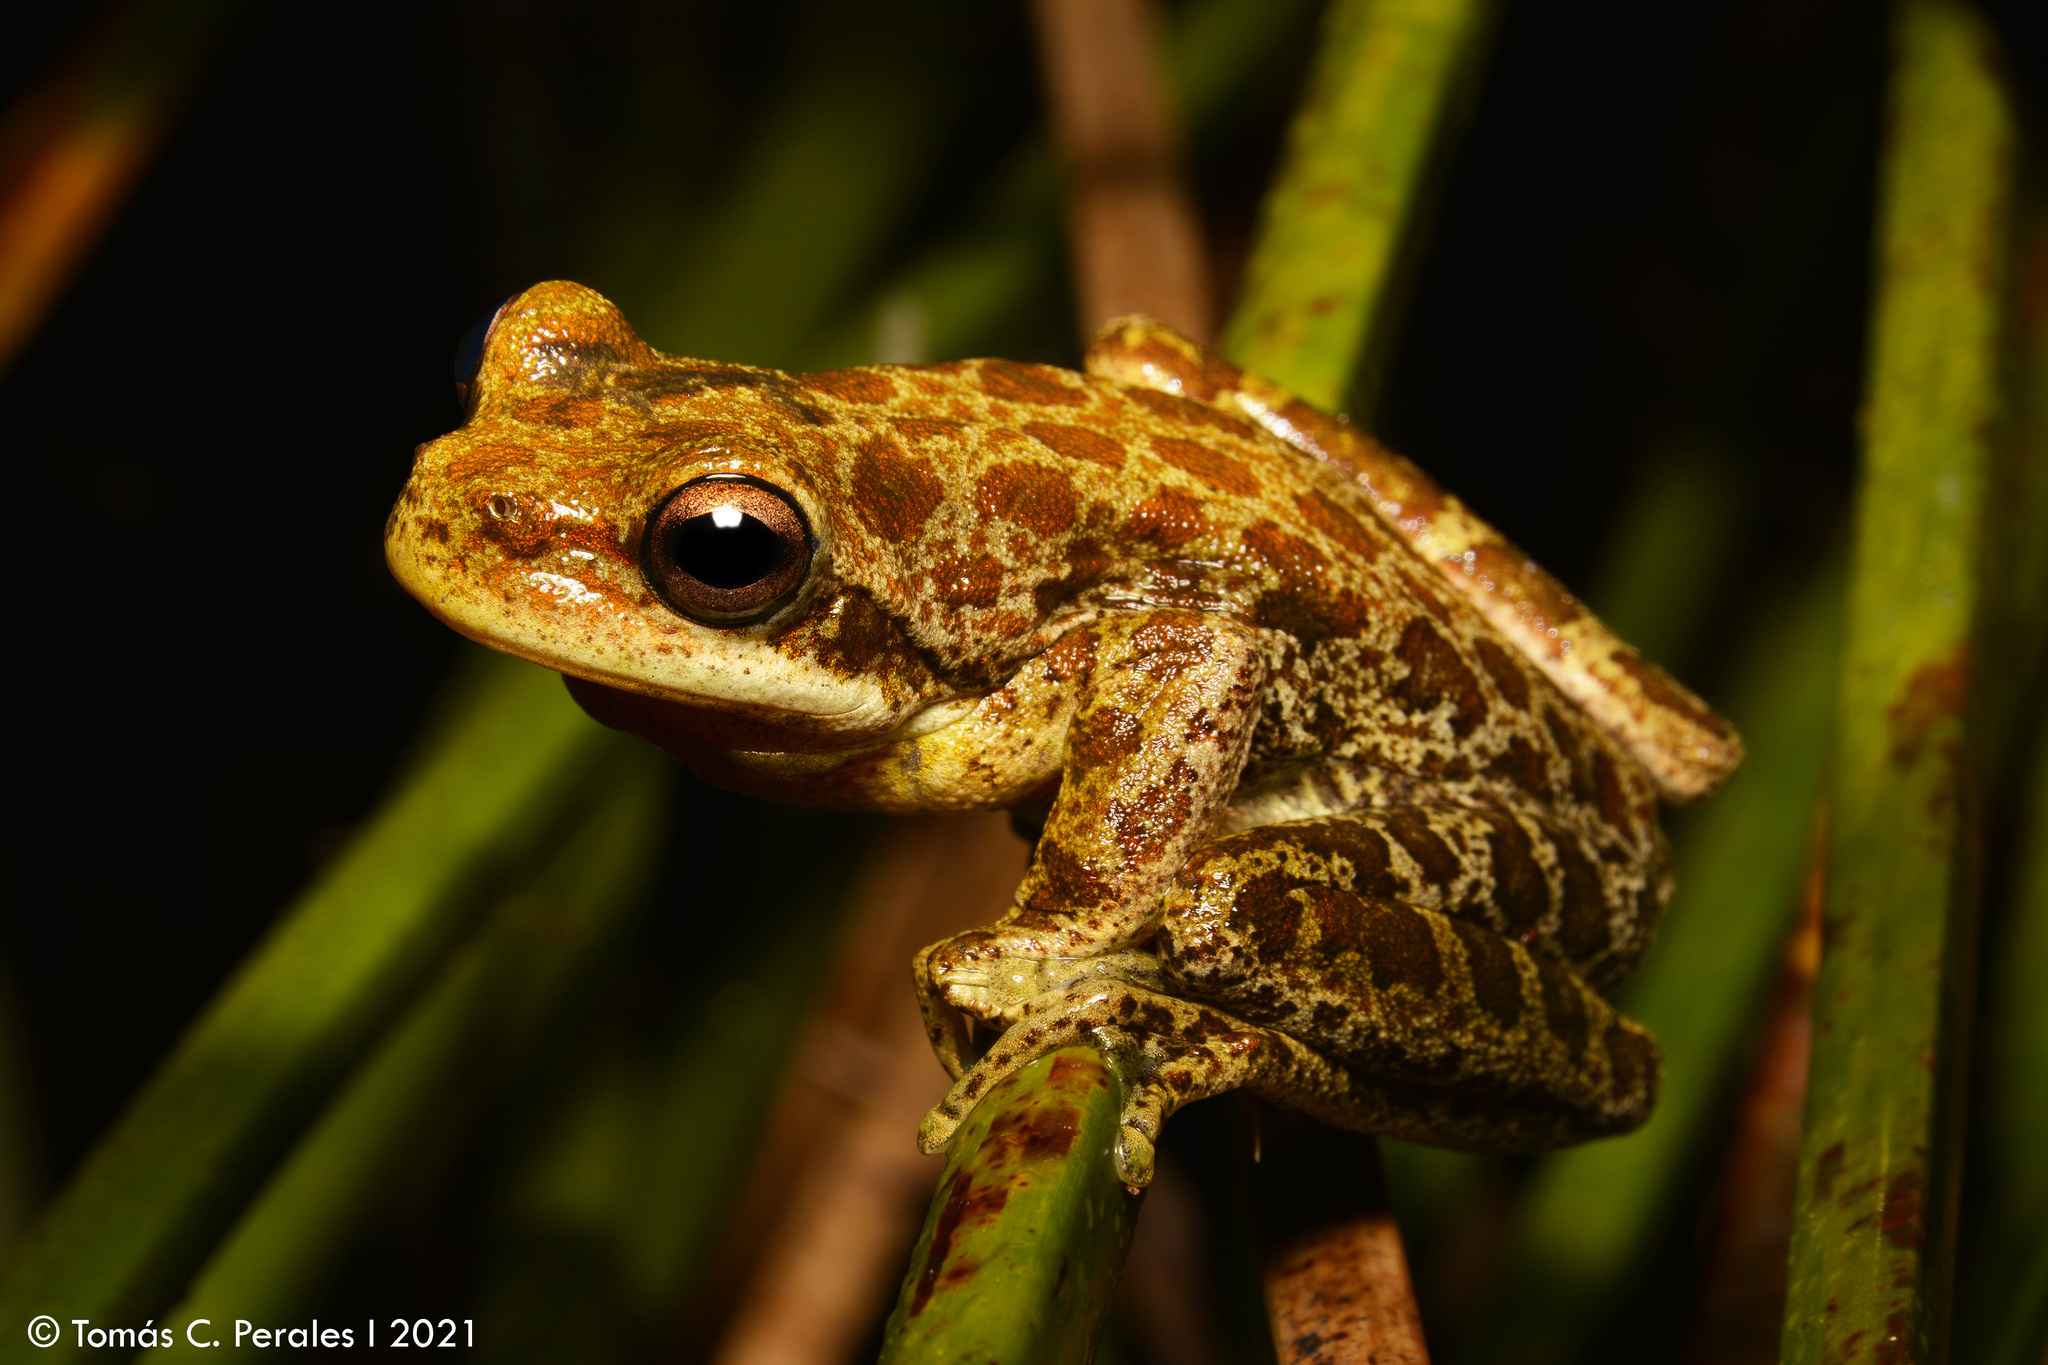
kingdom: Animalia
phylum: Chordata
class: Amphibia
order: Anura
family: Hylidae
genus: Boana
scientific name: Boana cordobae
